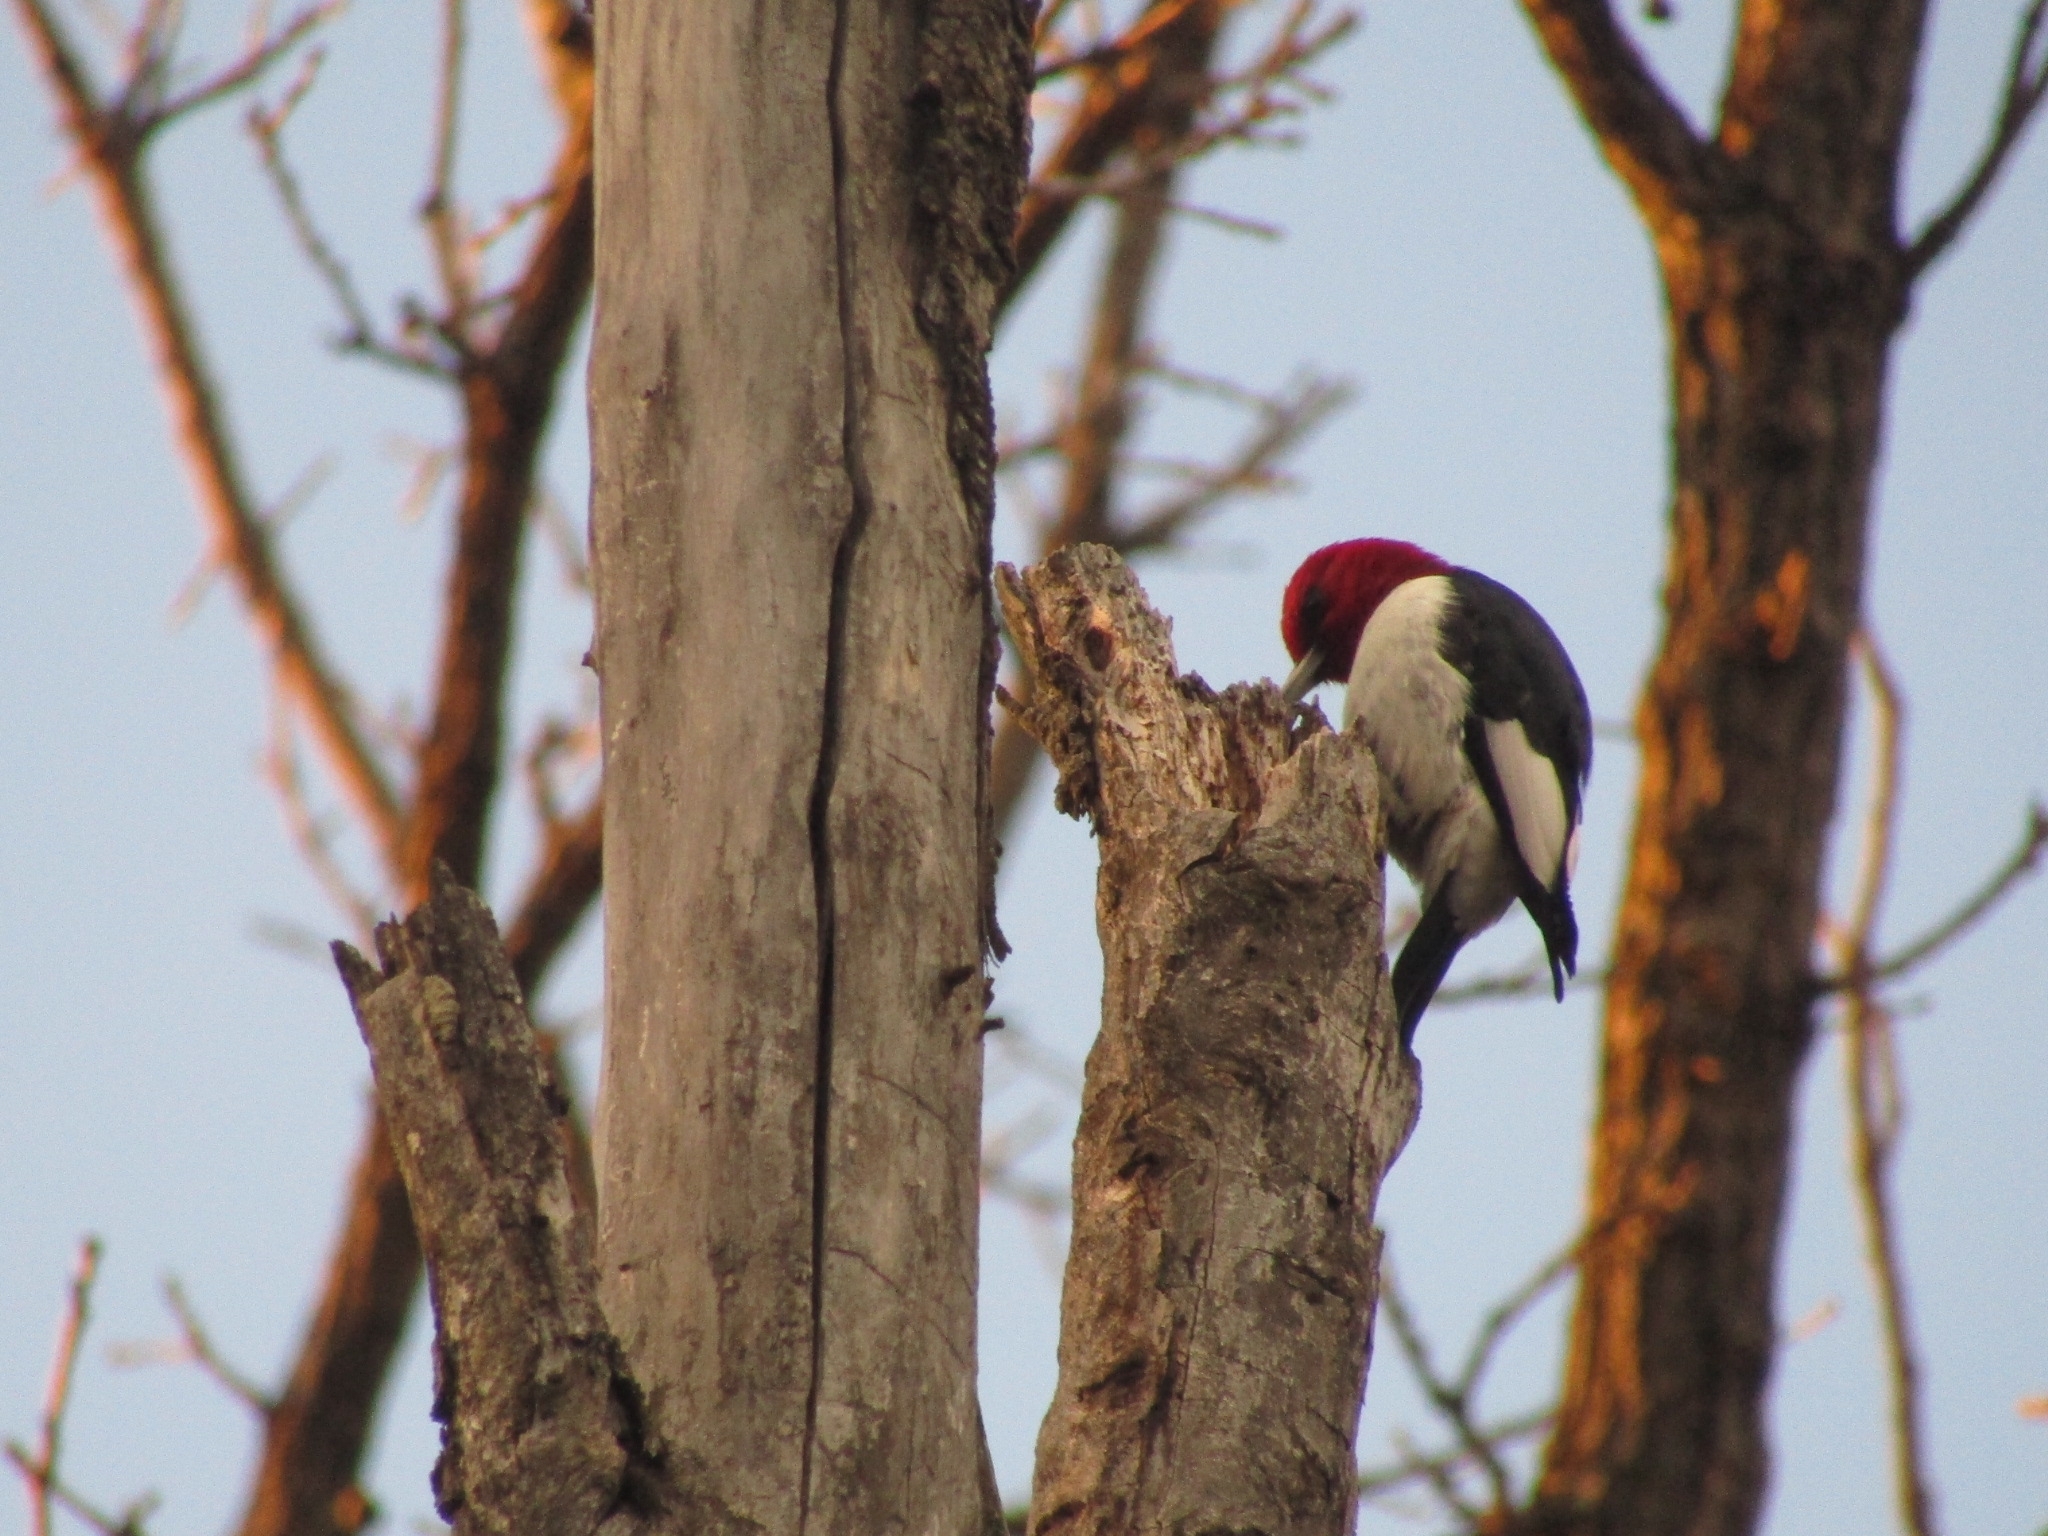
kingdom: Animalia
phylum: Chordata
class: Aves
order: Piciformes
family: Picidae
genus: Melanerpes
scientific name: Melanerpes erythrocephalus
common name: Red-headed woodpecker
